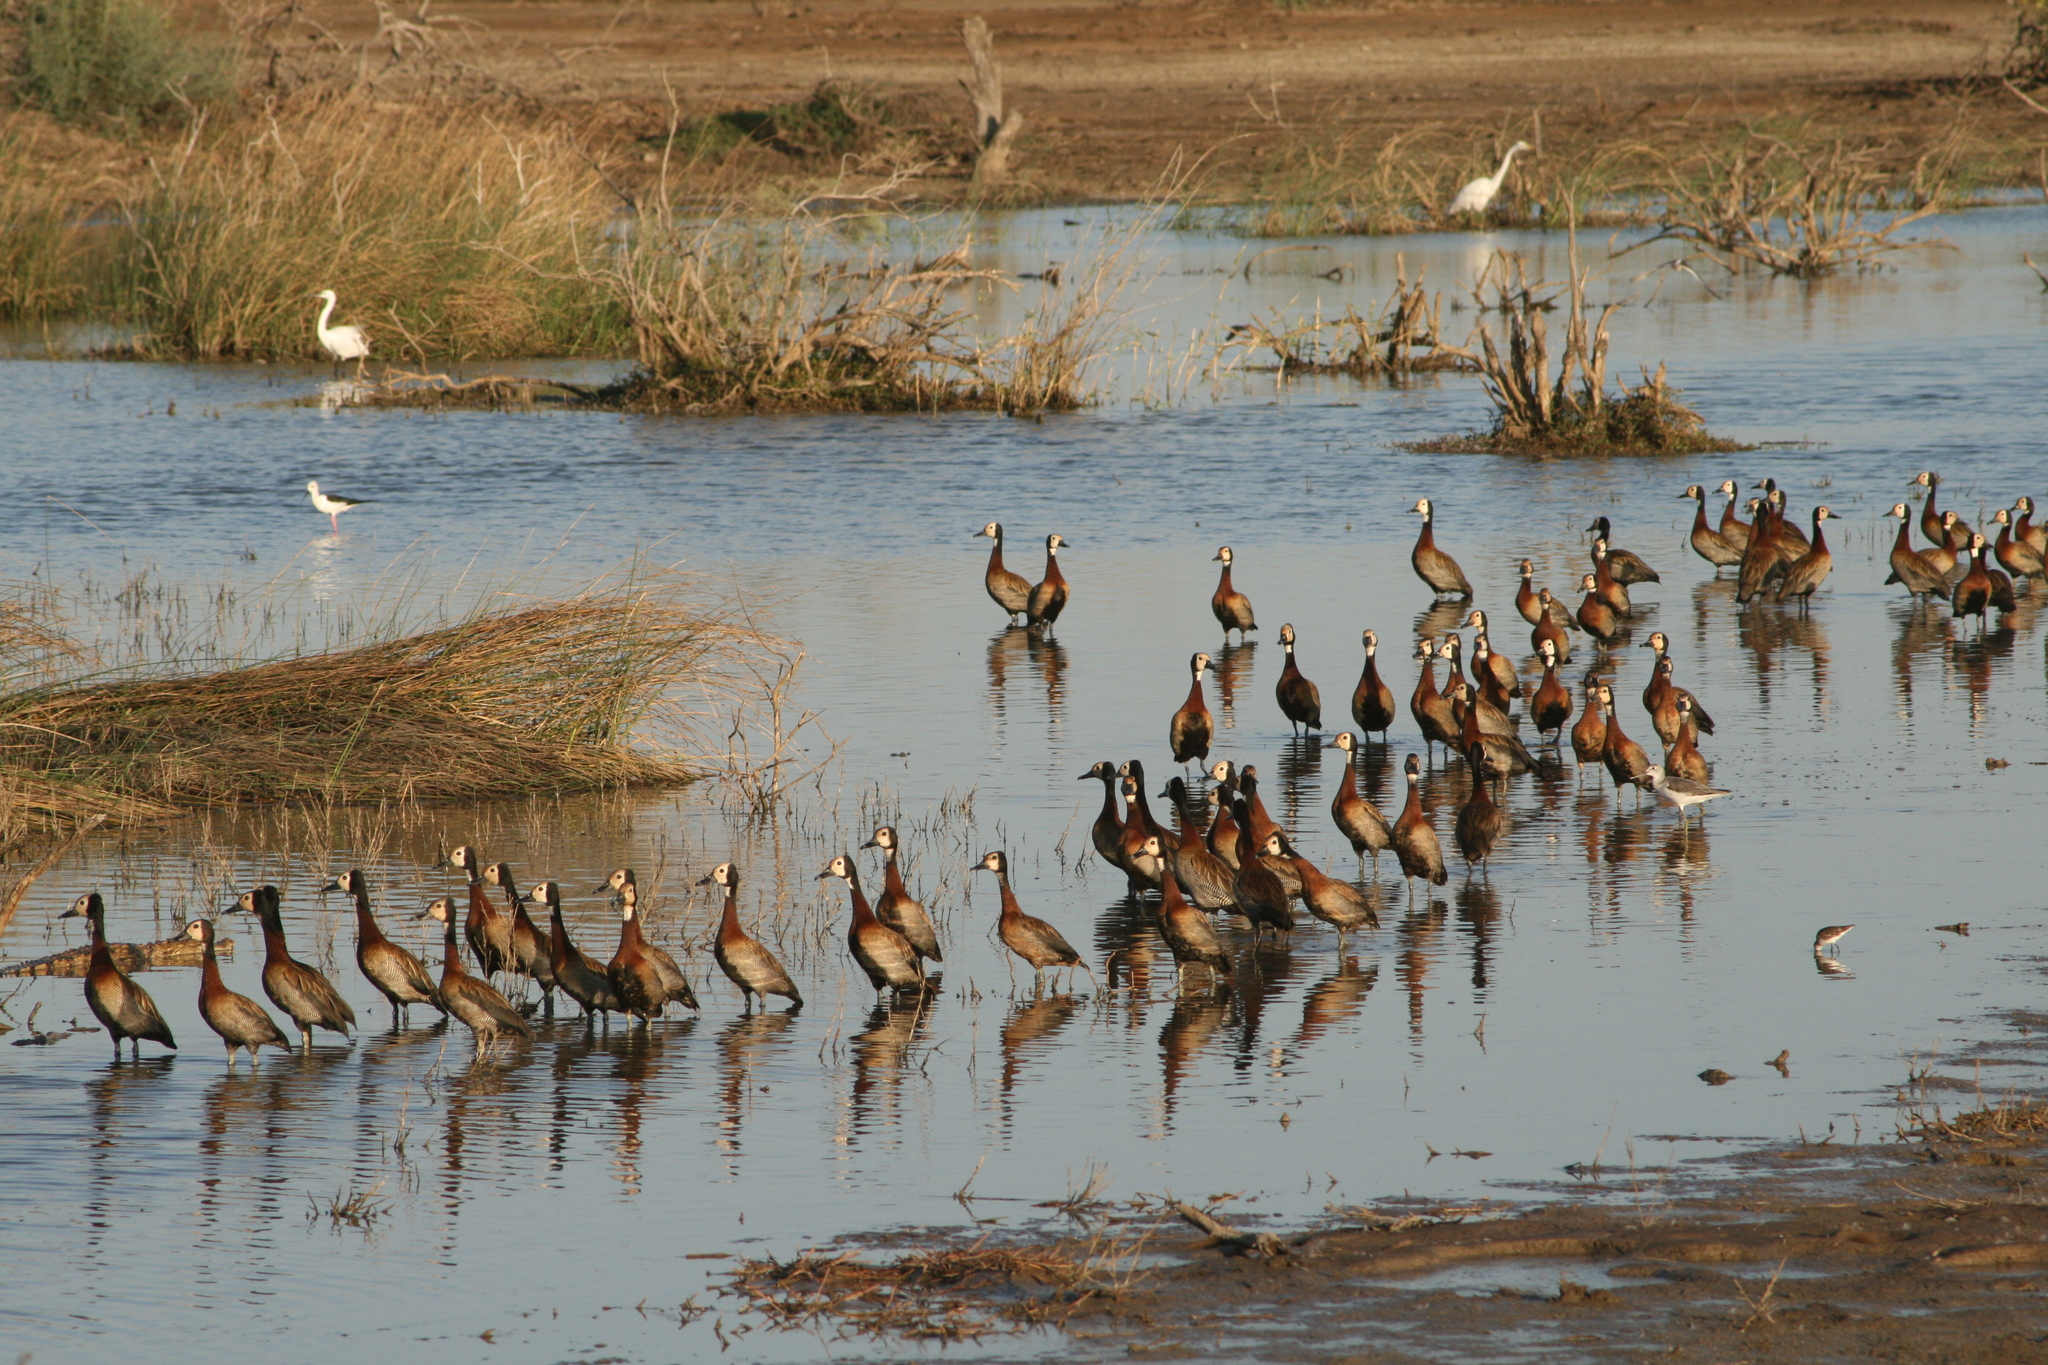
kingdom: Animalia
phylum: Chordata
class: Aves
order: Anseriformes
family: Anatidae
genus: Dendrocygna
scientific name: Dendrocygna viduata
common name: White-faced whistling duck
